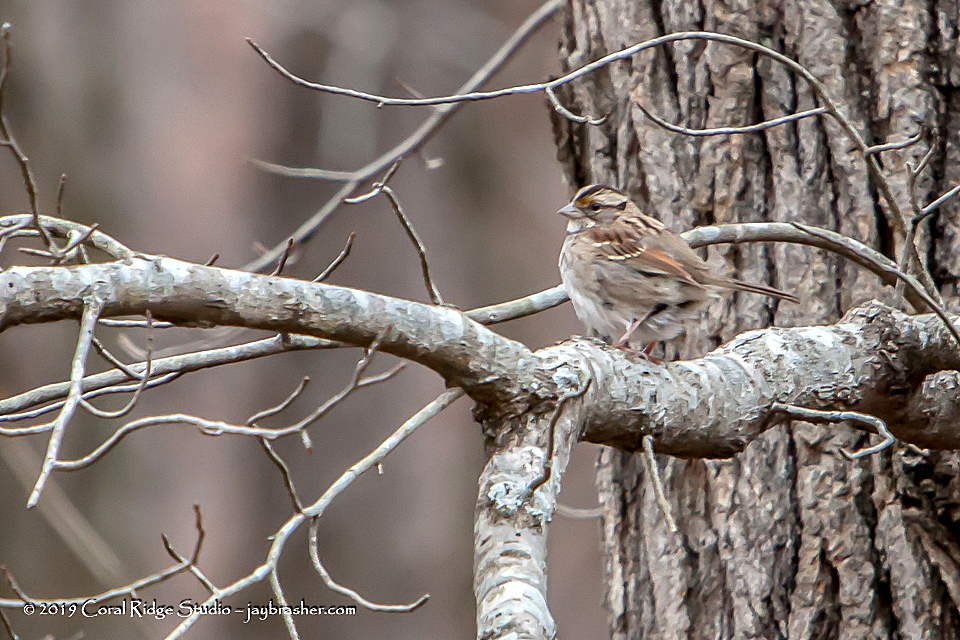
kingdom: Animalia
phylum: Chordata
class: Aves
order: Passeriformes
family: Passerellidae
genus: Zonotrichia
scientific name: Zonotrichia albicollis
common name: White-throated sparrow
